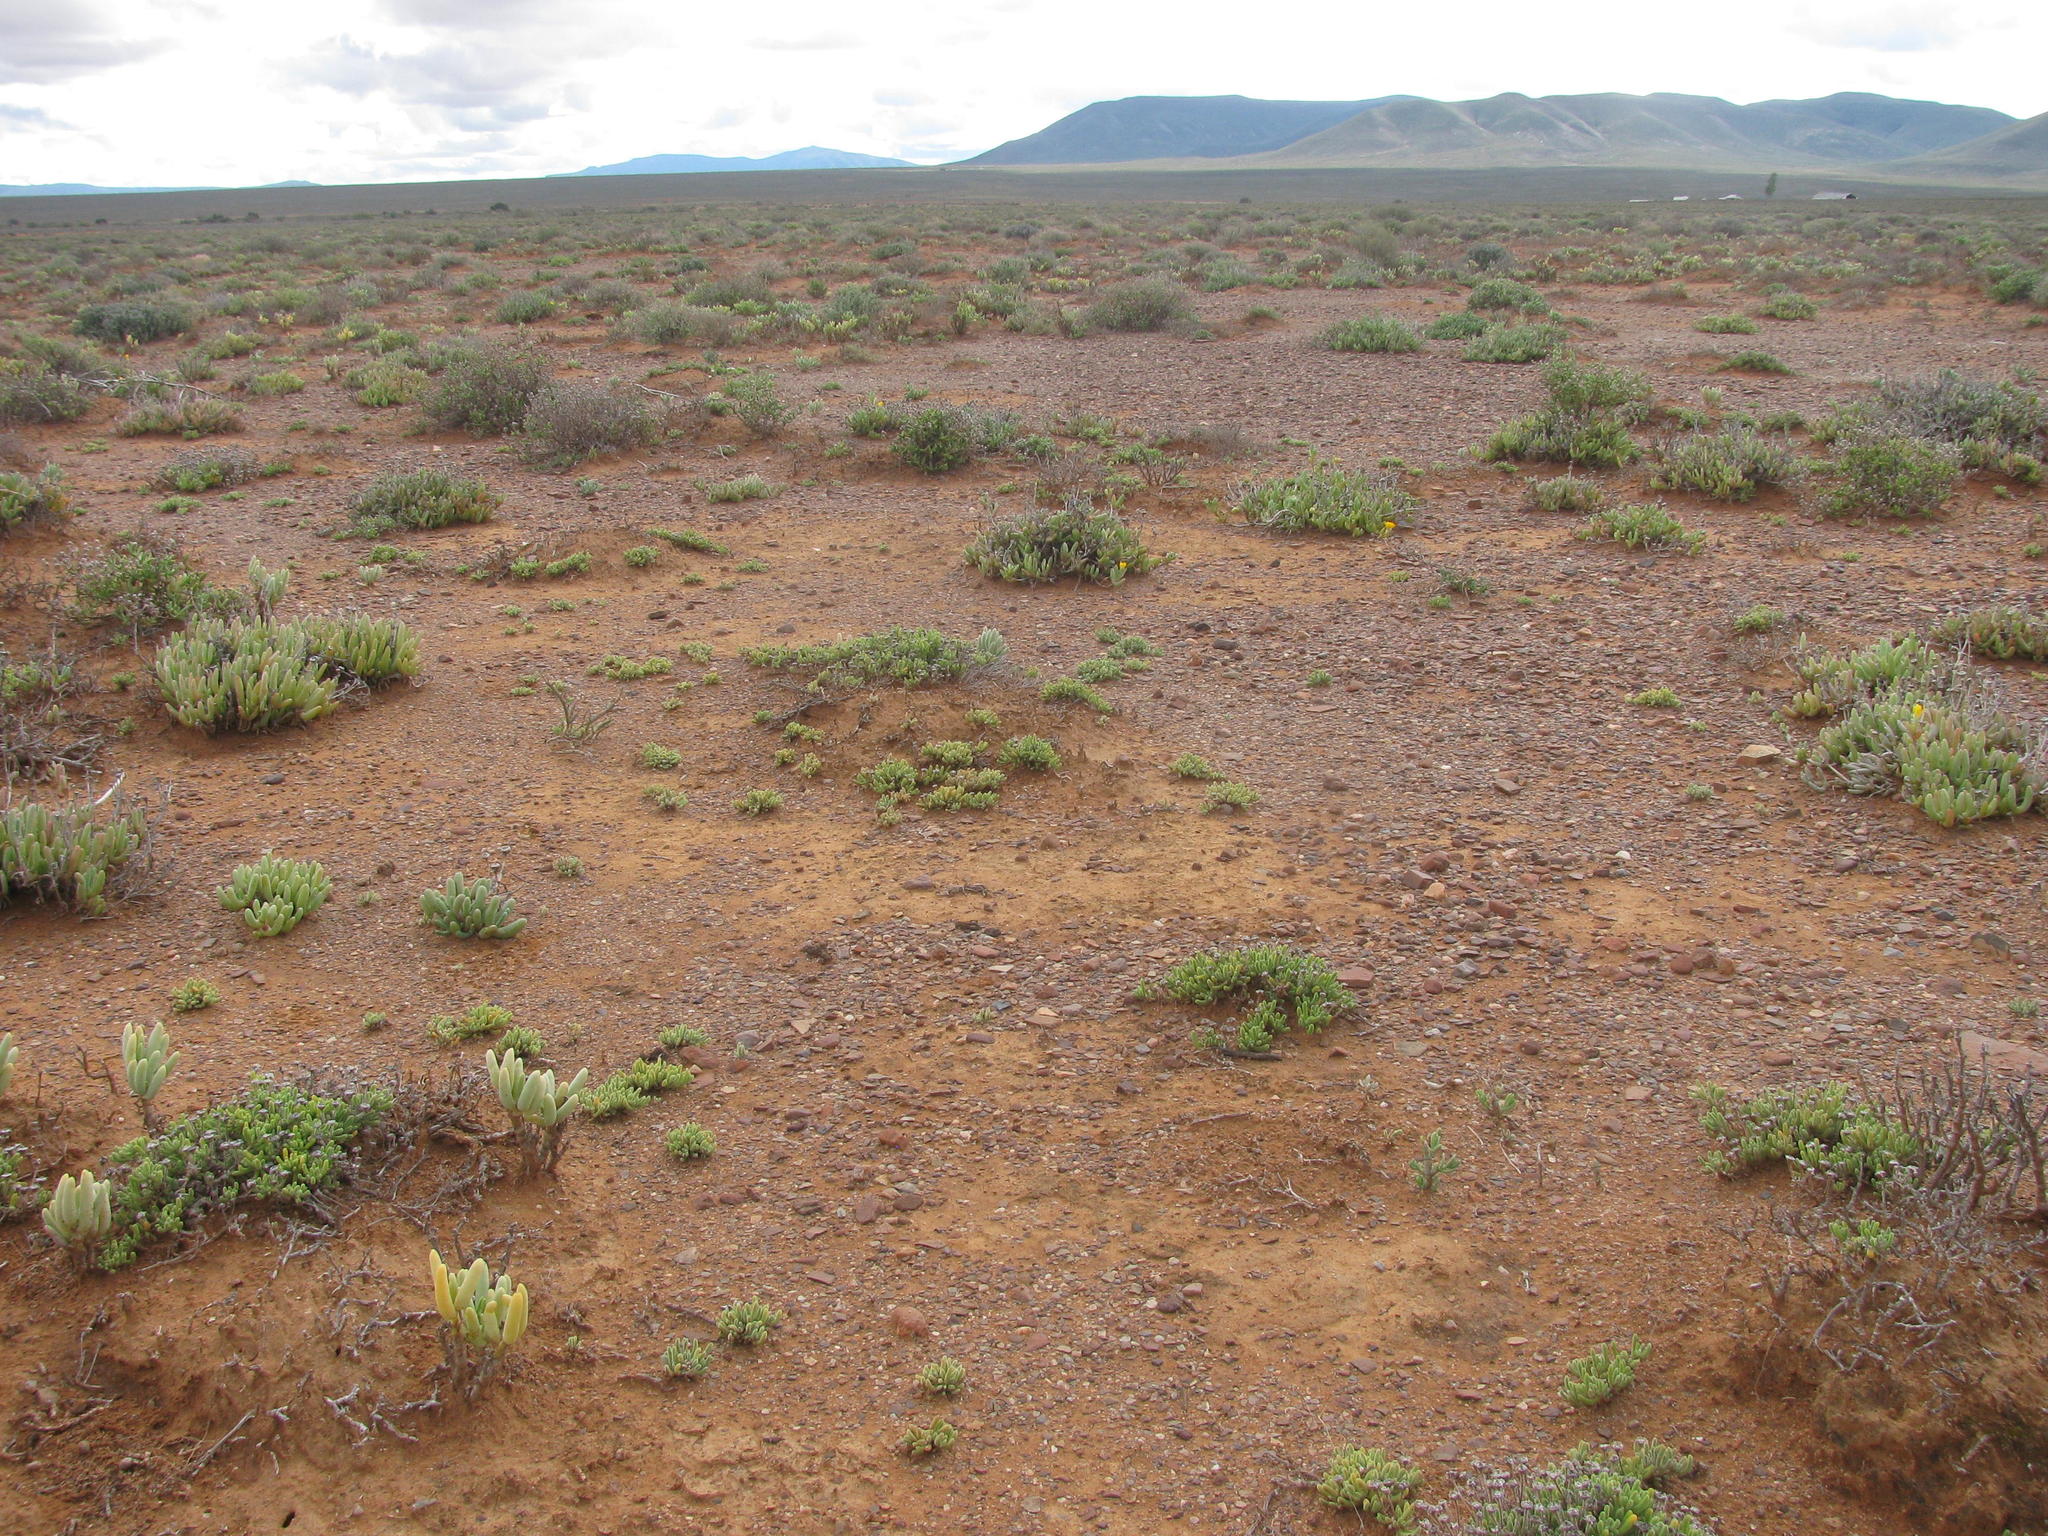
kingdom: Plantae
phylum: Tracheophyta
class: Magnoliopsida
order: Caryophyllales
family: Aizoaceae
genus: Drosanthemum
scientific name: Drosanthemum framesii
